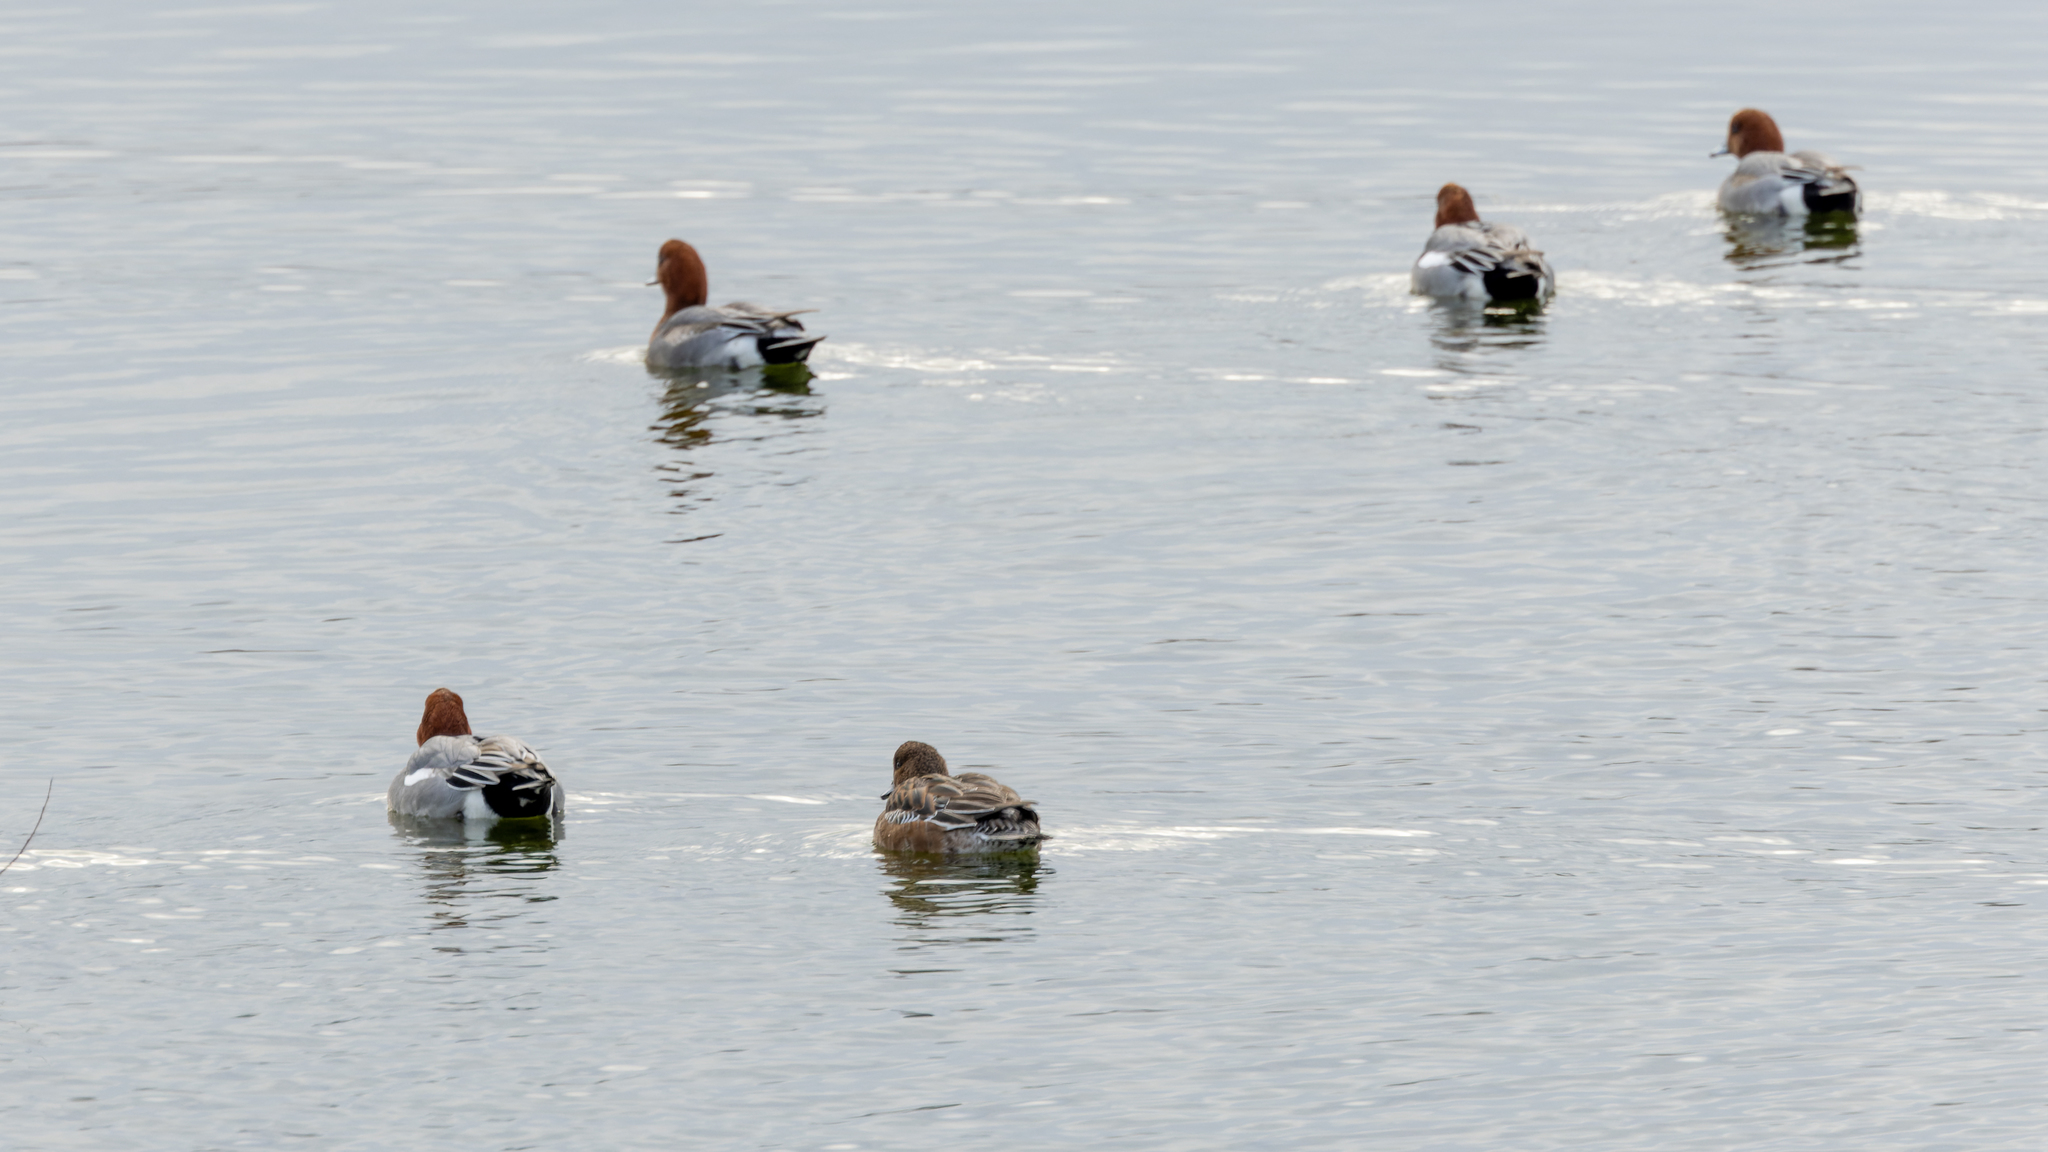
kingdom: Animalia
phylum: Chordata
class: Aves
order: Anseriformes
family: Anatidae
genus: Mareca
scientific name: Mareca penelope
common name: Eurasian wigeon
